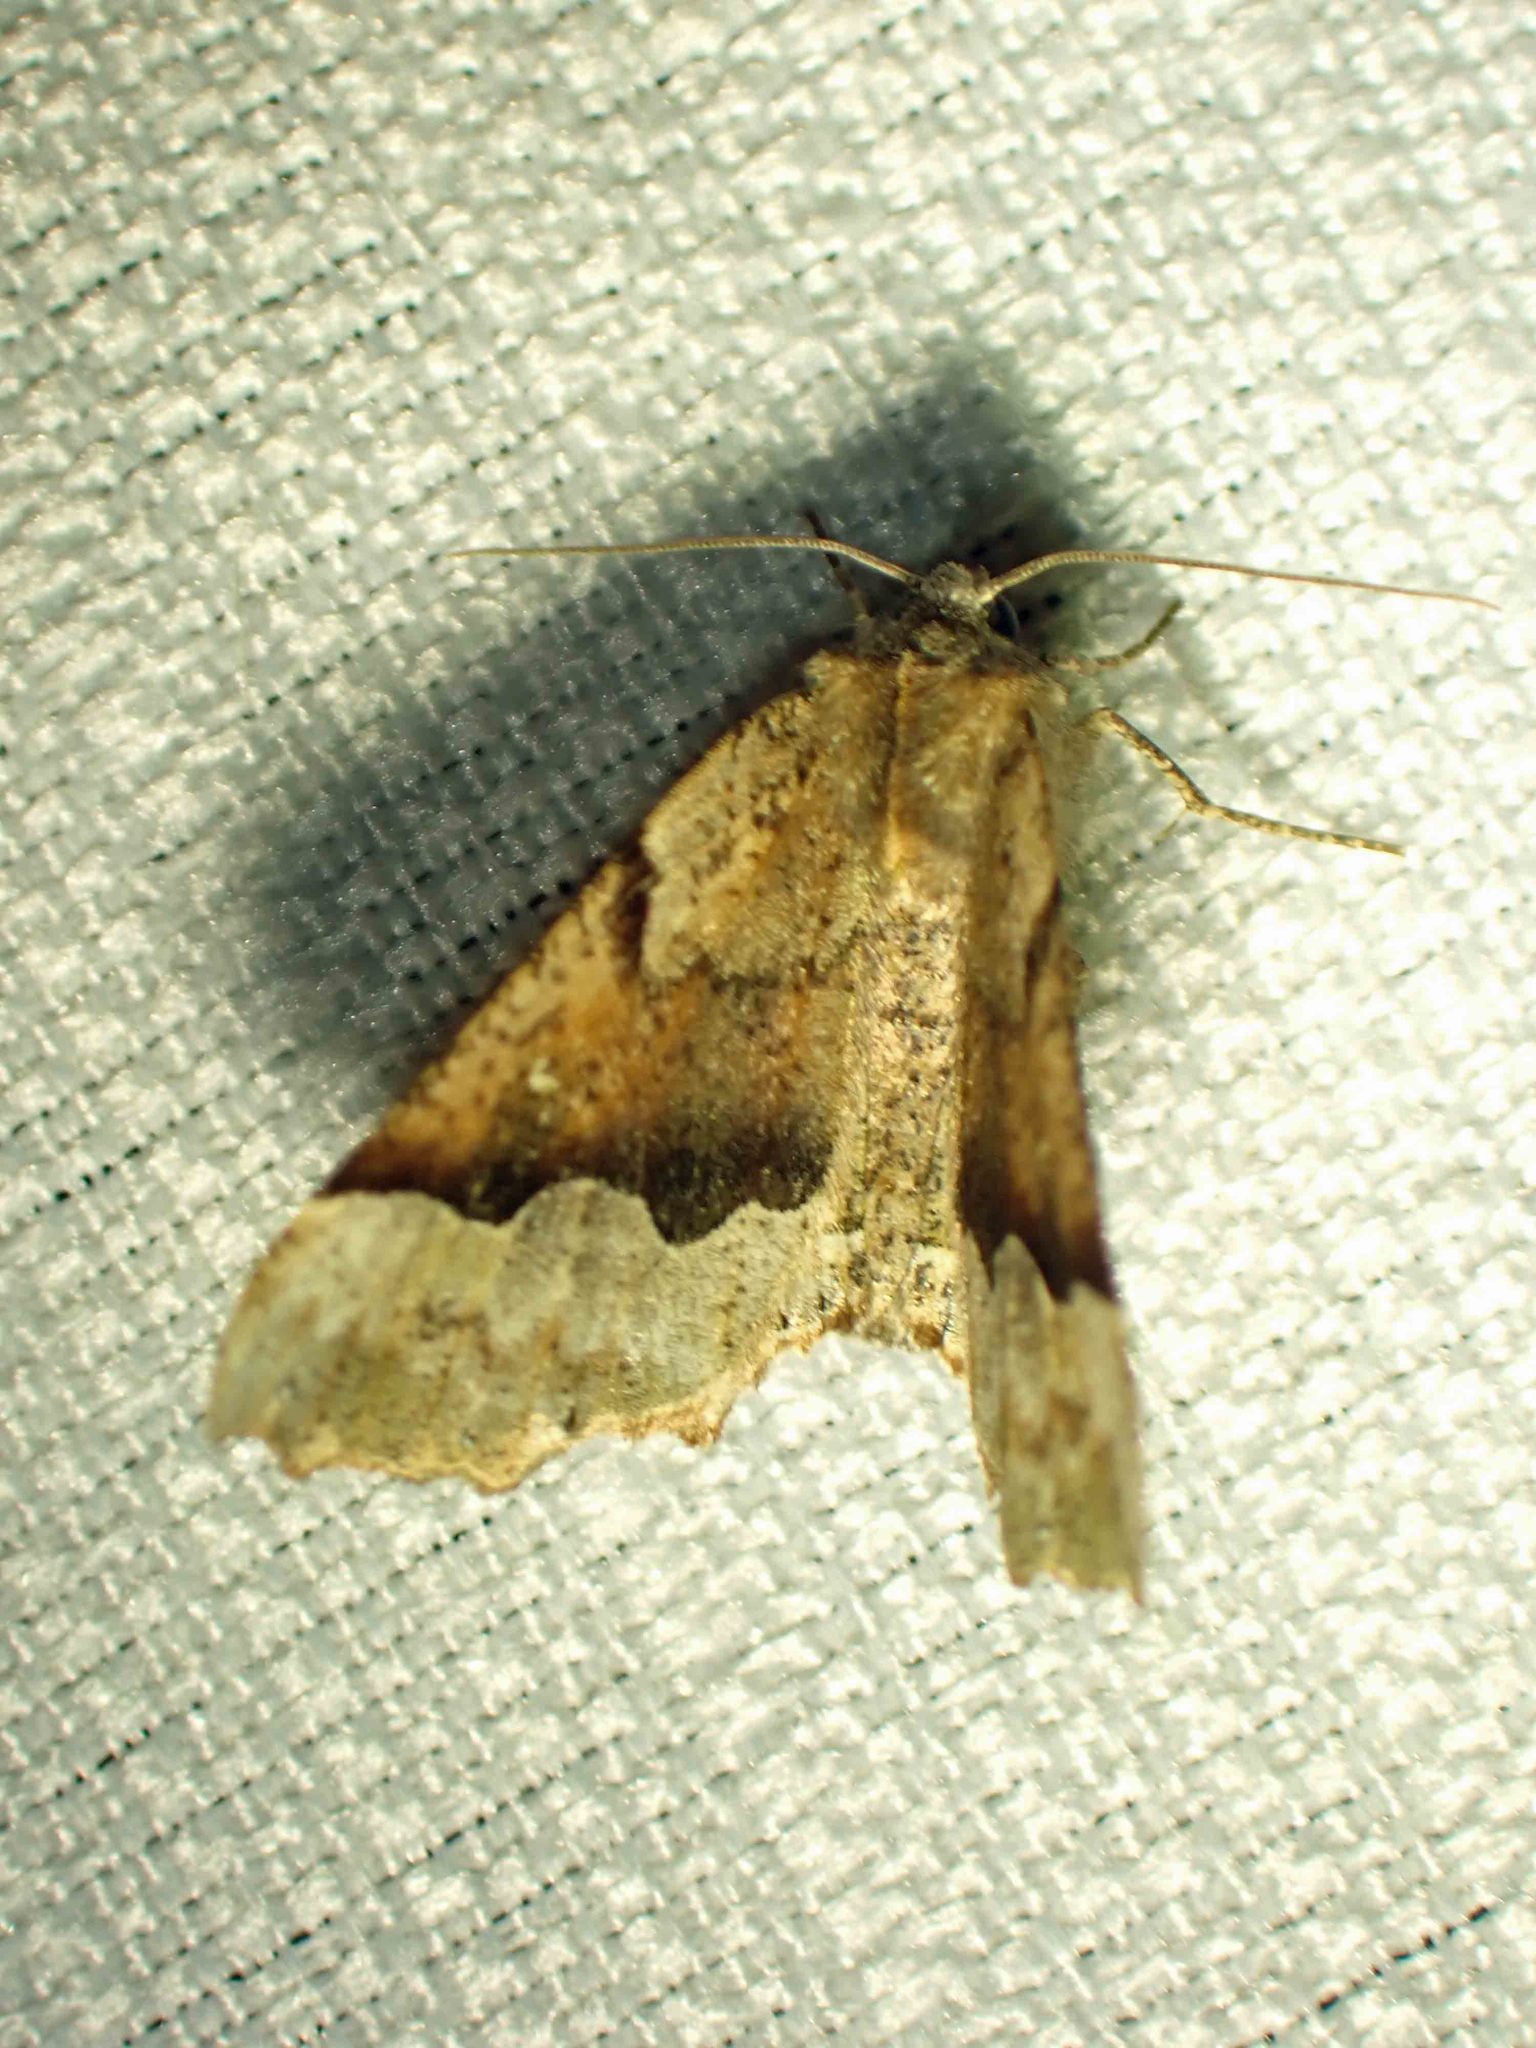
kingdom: Animalia
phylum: Arthropoda
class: Insecta
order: Lepidoptera
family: Geometridae
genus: Pero
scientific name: Pero morrisonaria
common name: Morrison's pero
